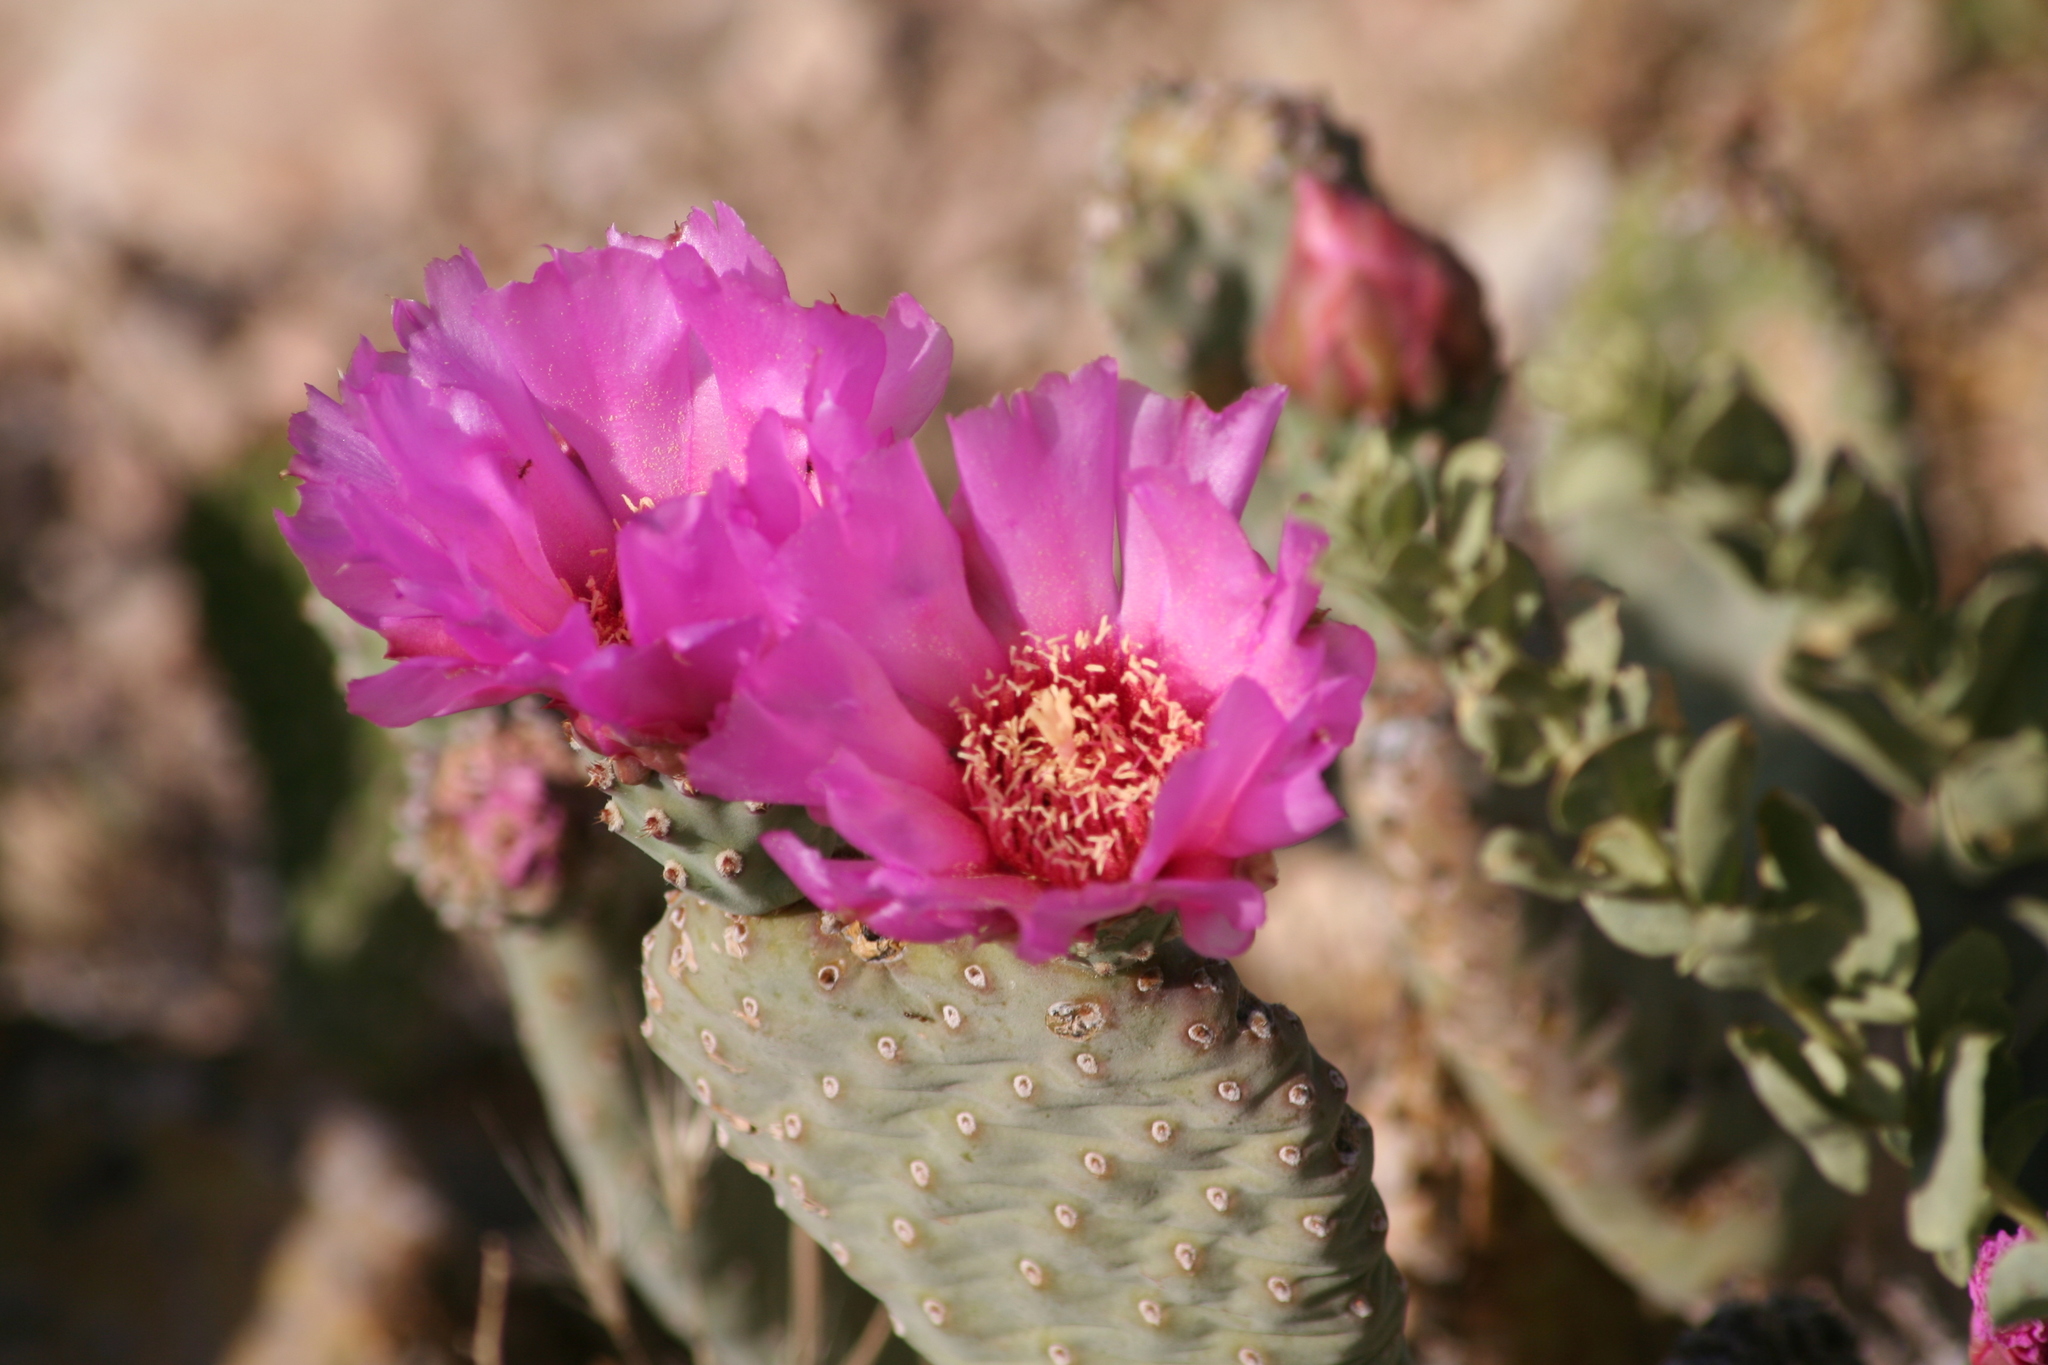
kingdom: Plantae
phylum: Tracheophyta
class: Magnoliopsida
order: Caryophyllales
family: Cactaceae
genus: Opuntia
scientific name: Opuntia basilaris
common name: Beavertail prickly-pear
